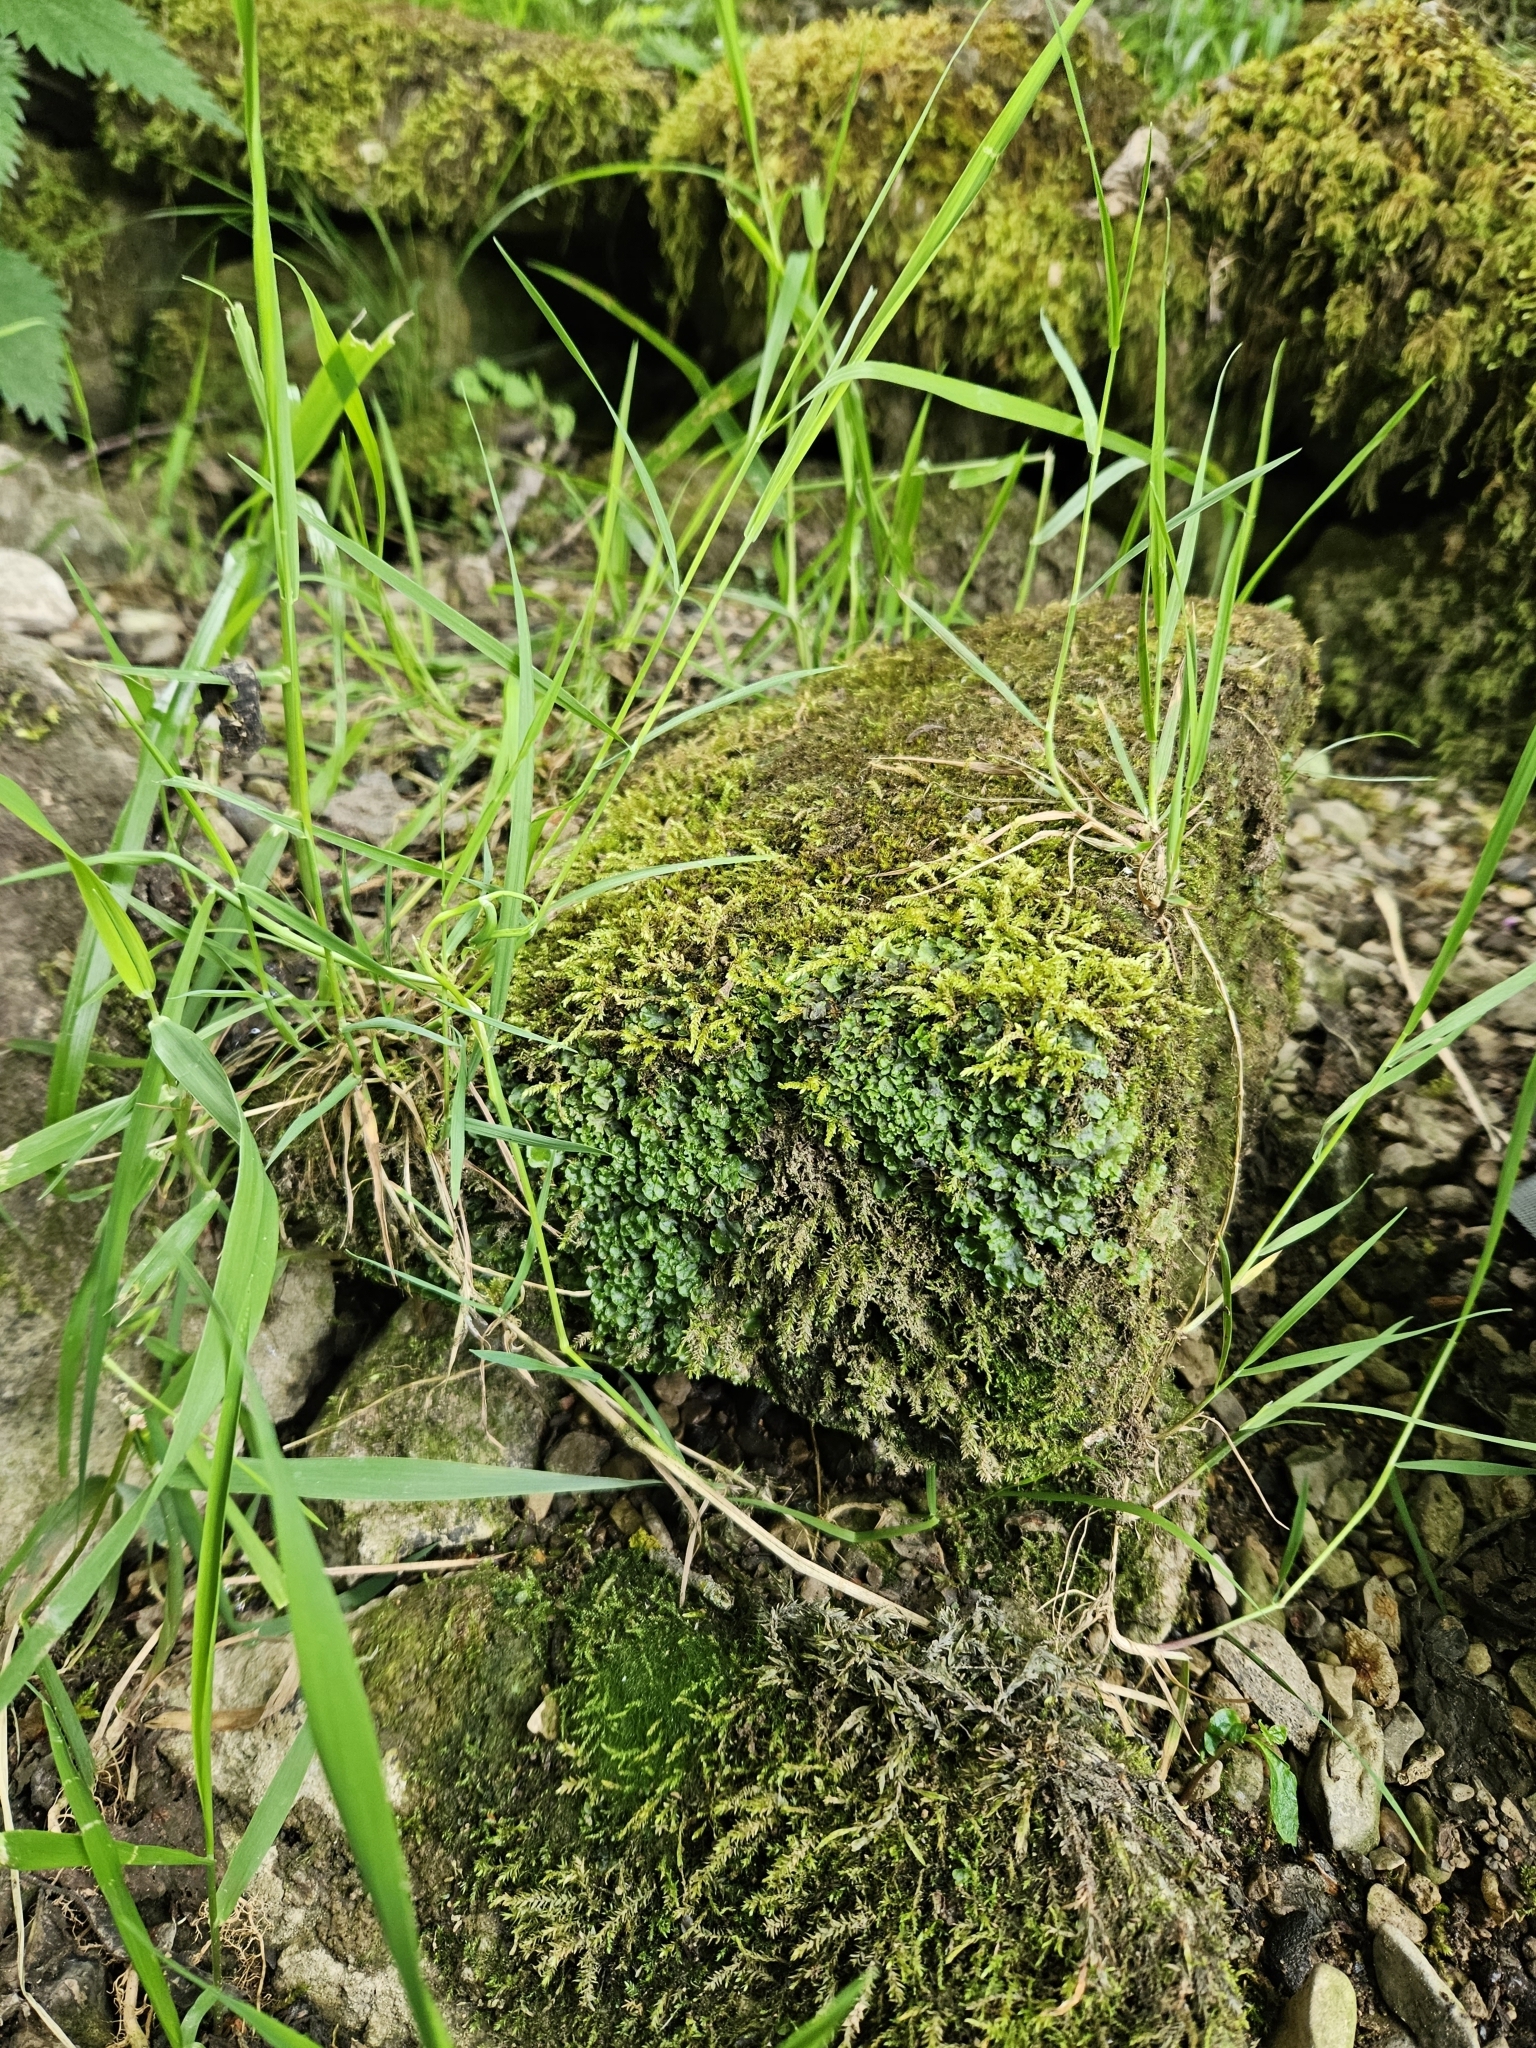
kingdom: Plantae
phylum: Marchantiophyta
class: Jungermanniopsida
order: Pelliales
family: Pelliaceae
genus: Apopellia
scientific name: Apopellia endiviifolia
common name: Endive pellia
